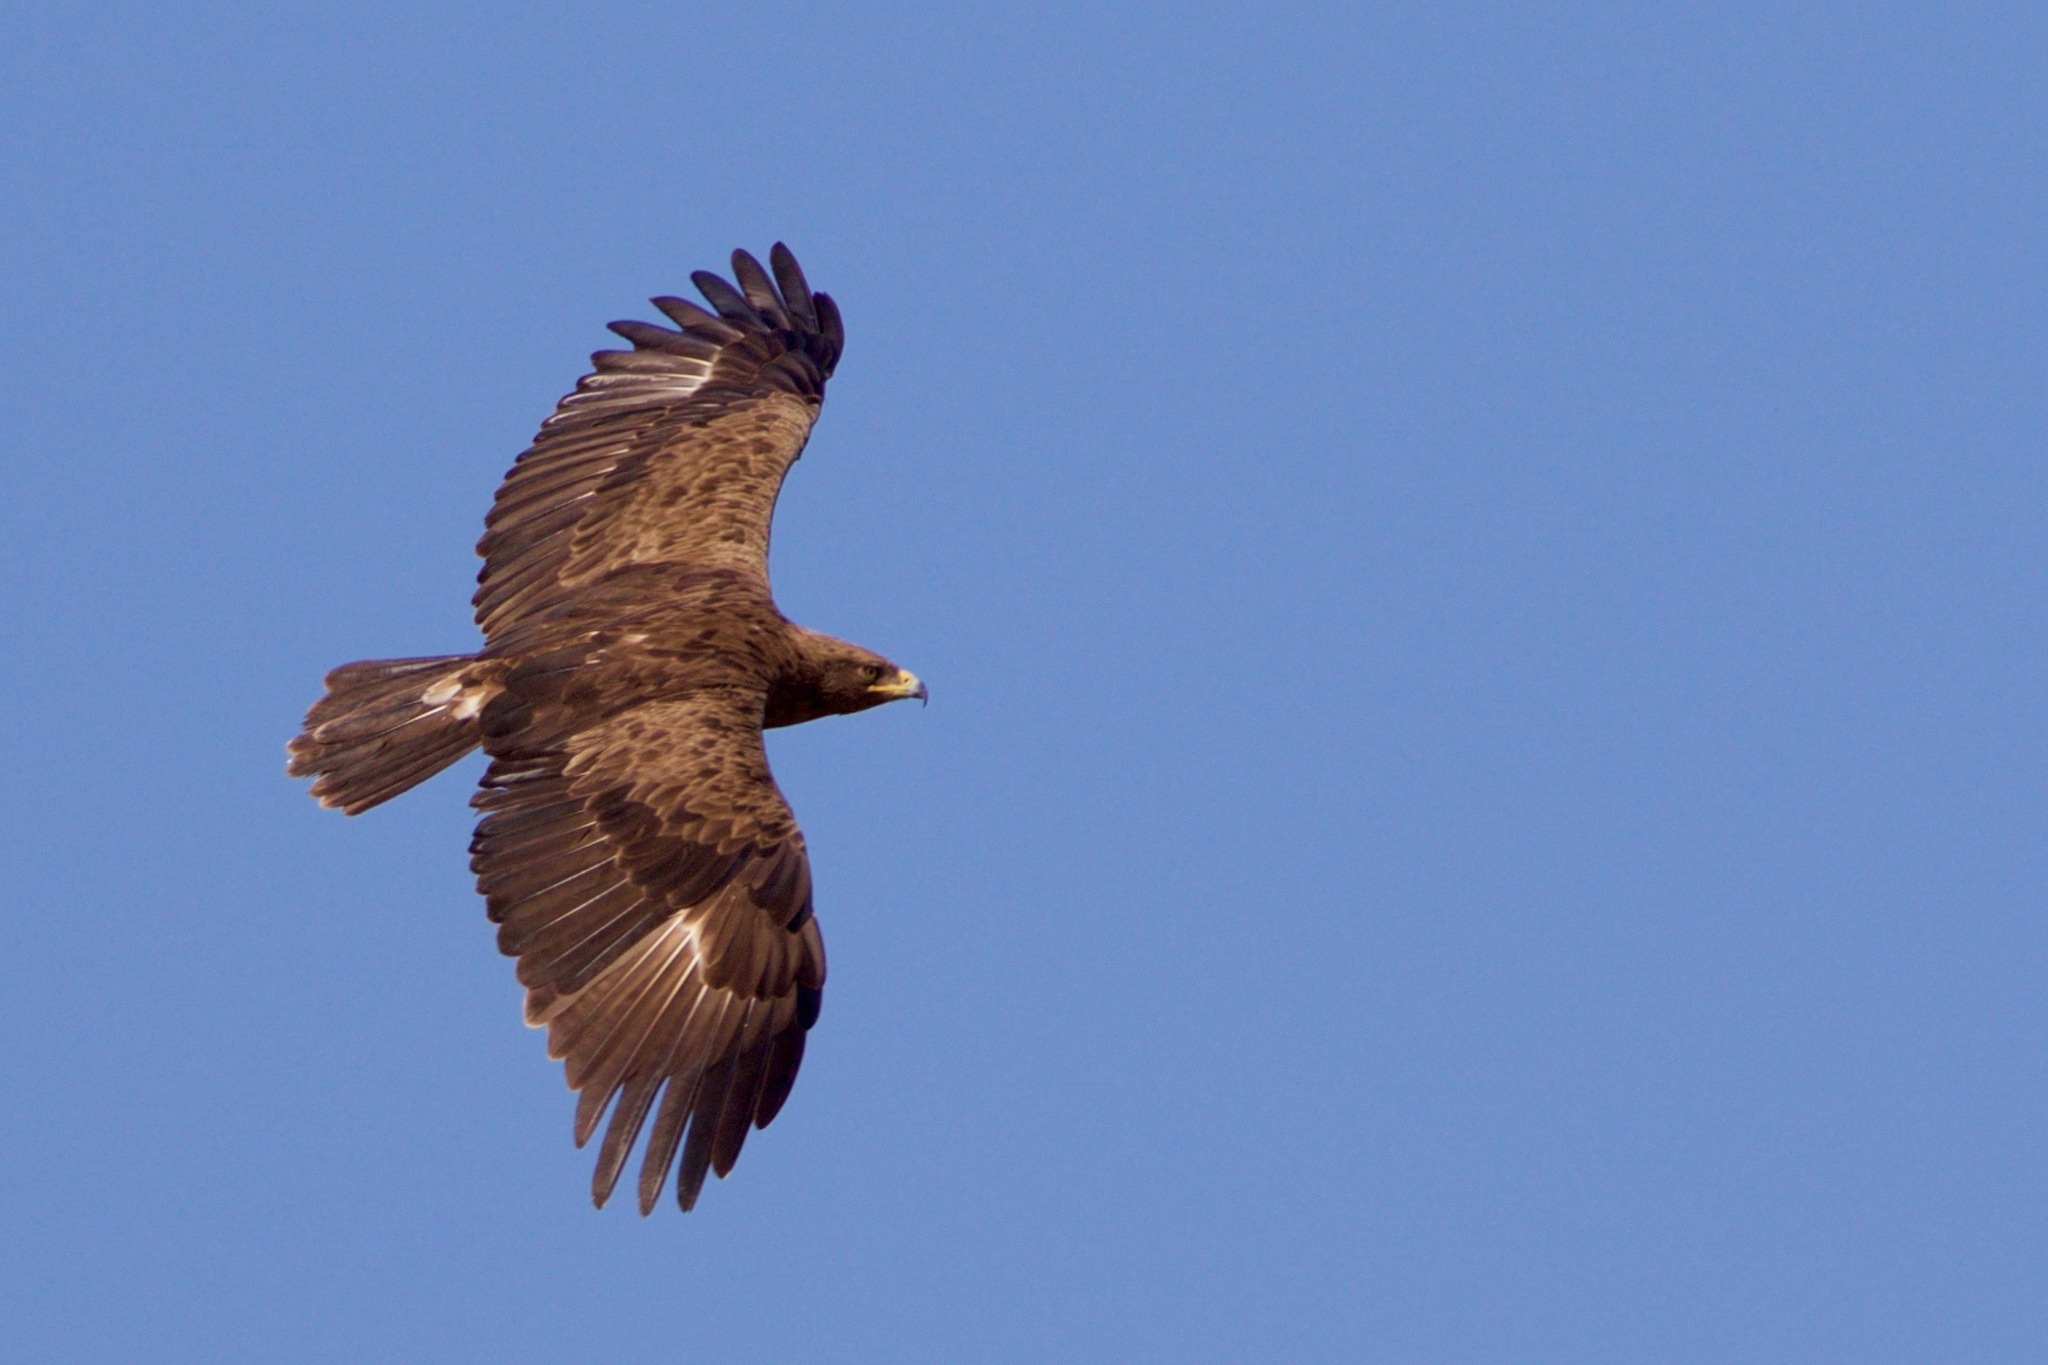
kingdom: Animalia
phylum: Chordata
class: Aves
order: Accipitriformes
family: Accipitridae
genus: Aquila
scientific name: Aquila pomarina
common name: Lesser spotted eagle
